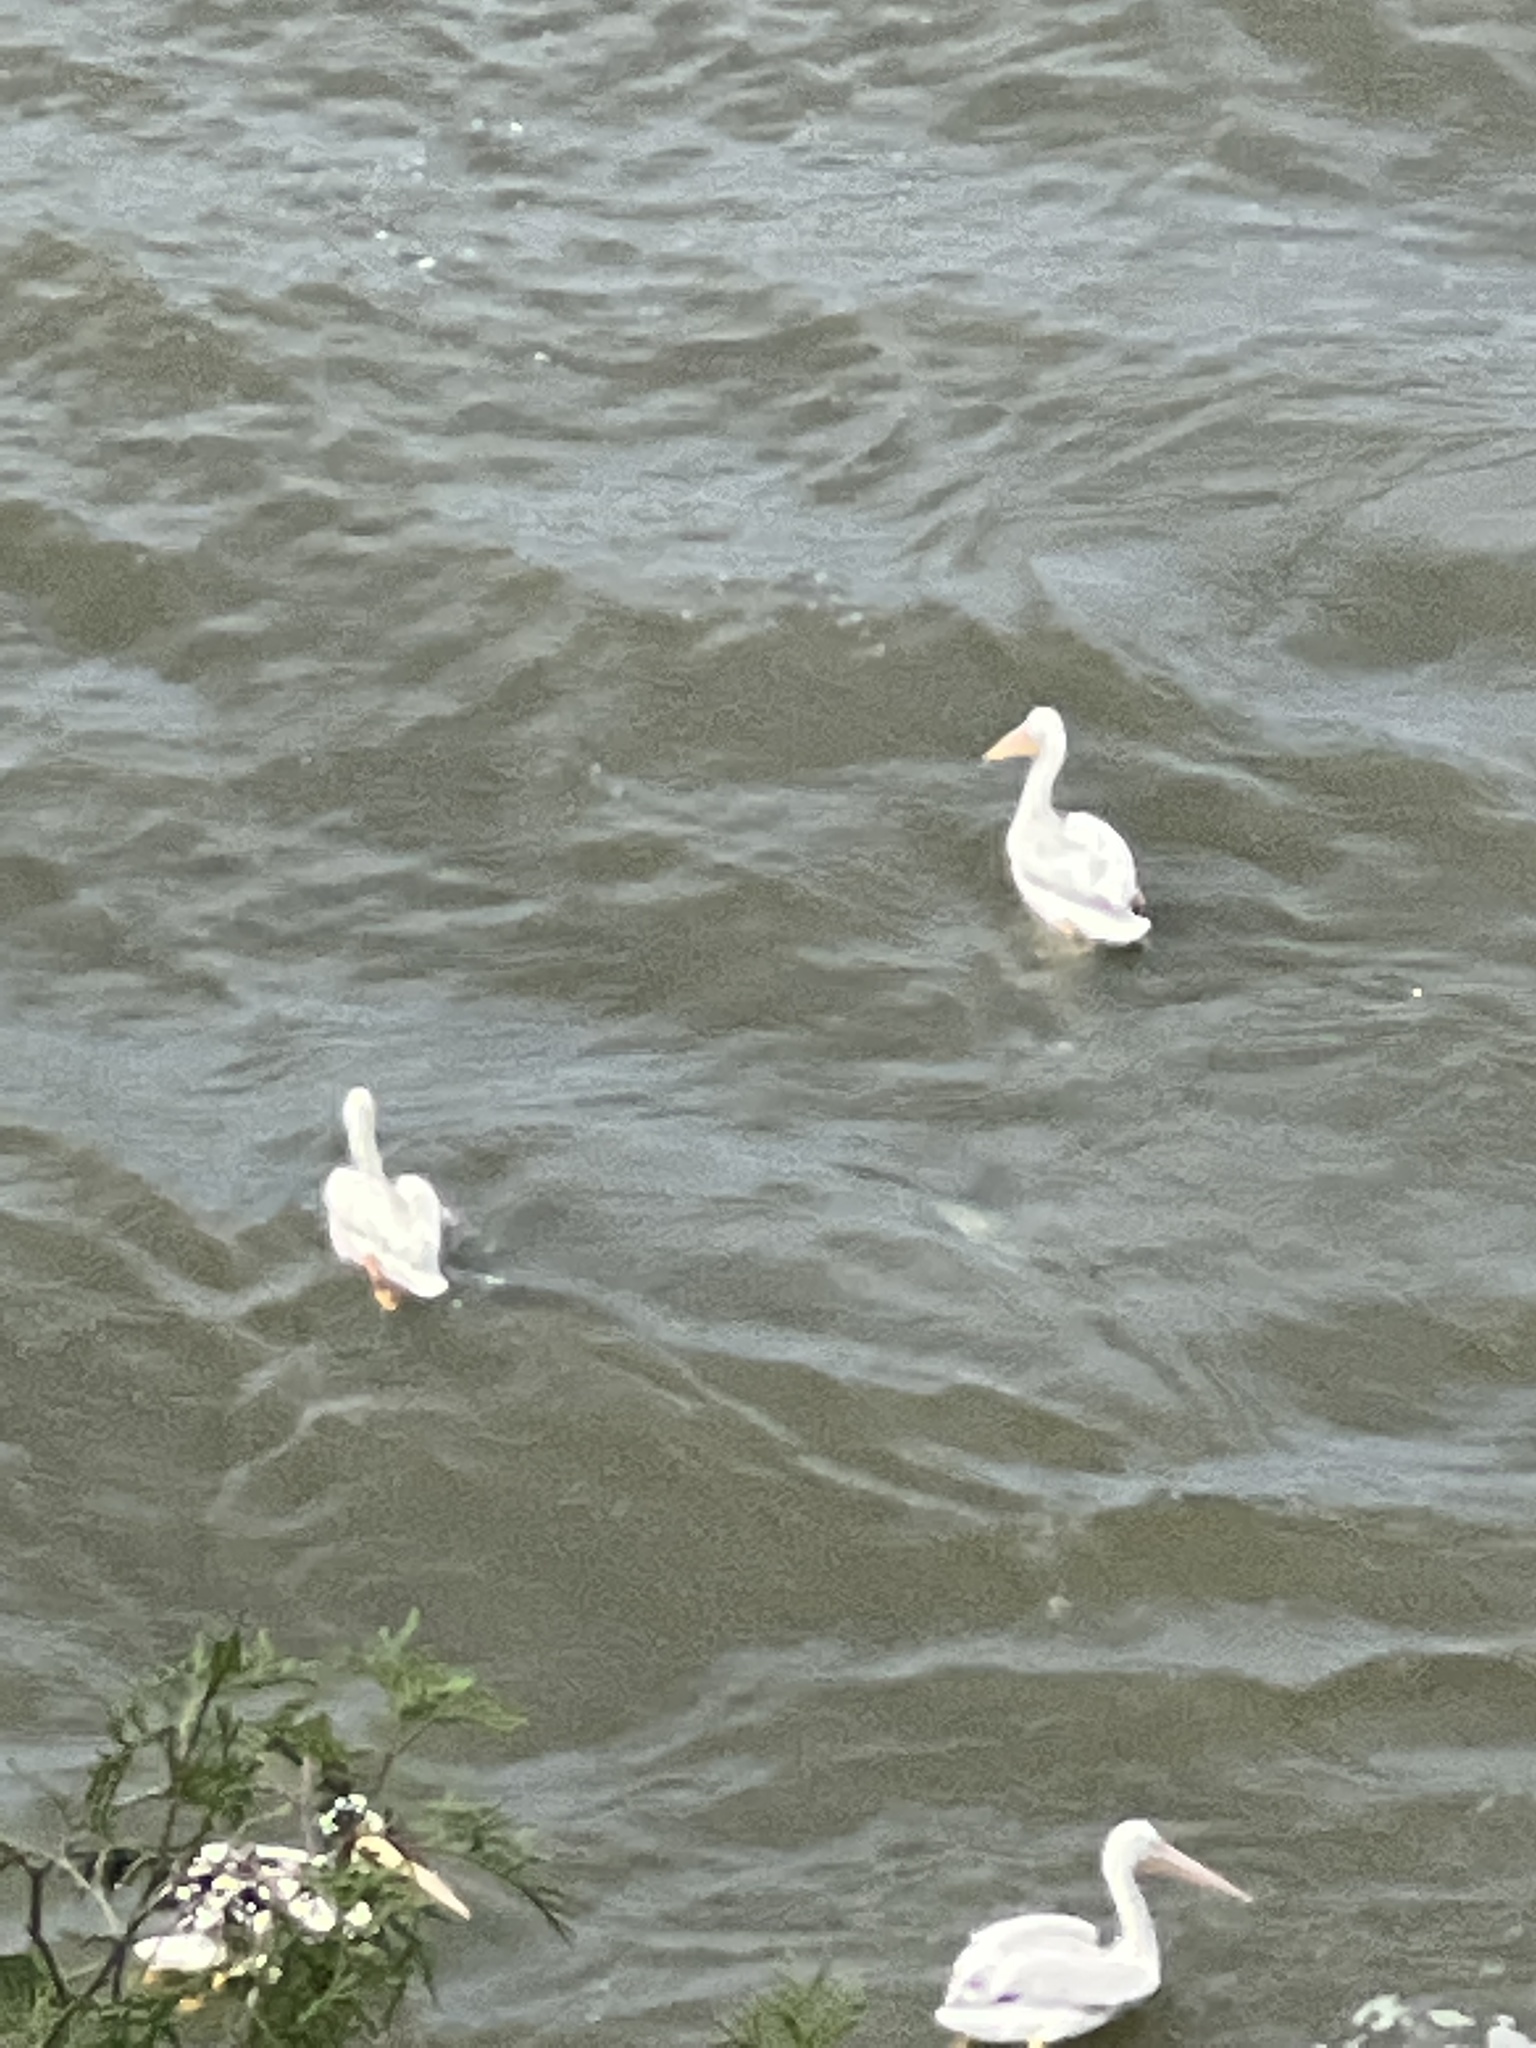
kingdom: Animalia
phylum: Chordata
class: Aves
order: Pelecaniformes
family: Pelecanidae
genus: Pelecanus
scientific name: Pelecanus erythrorhynchos
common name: American white pelican
